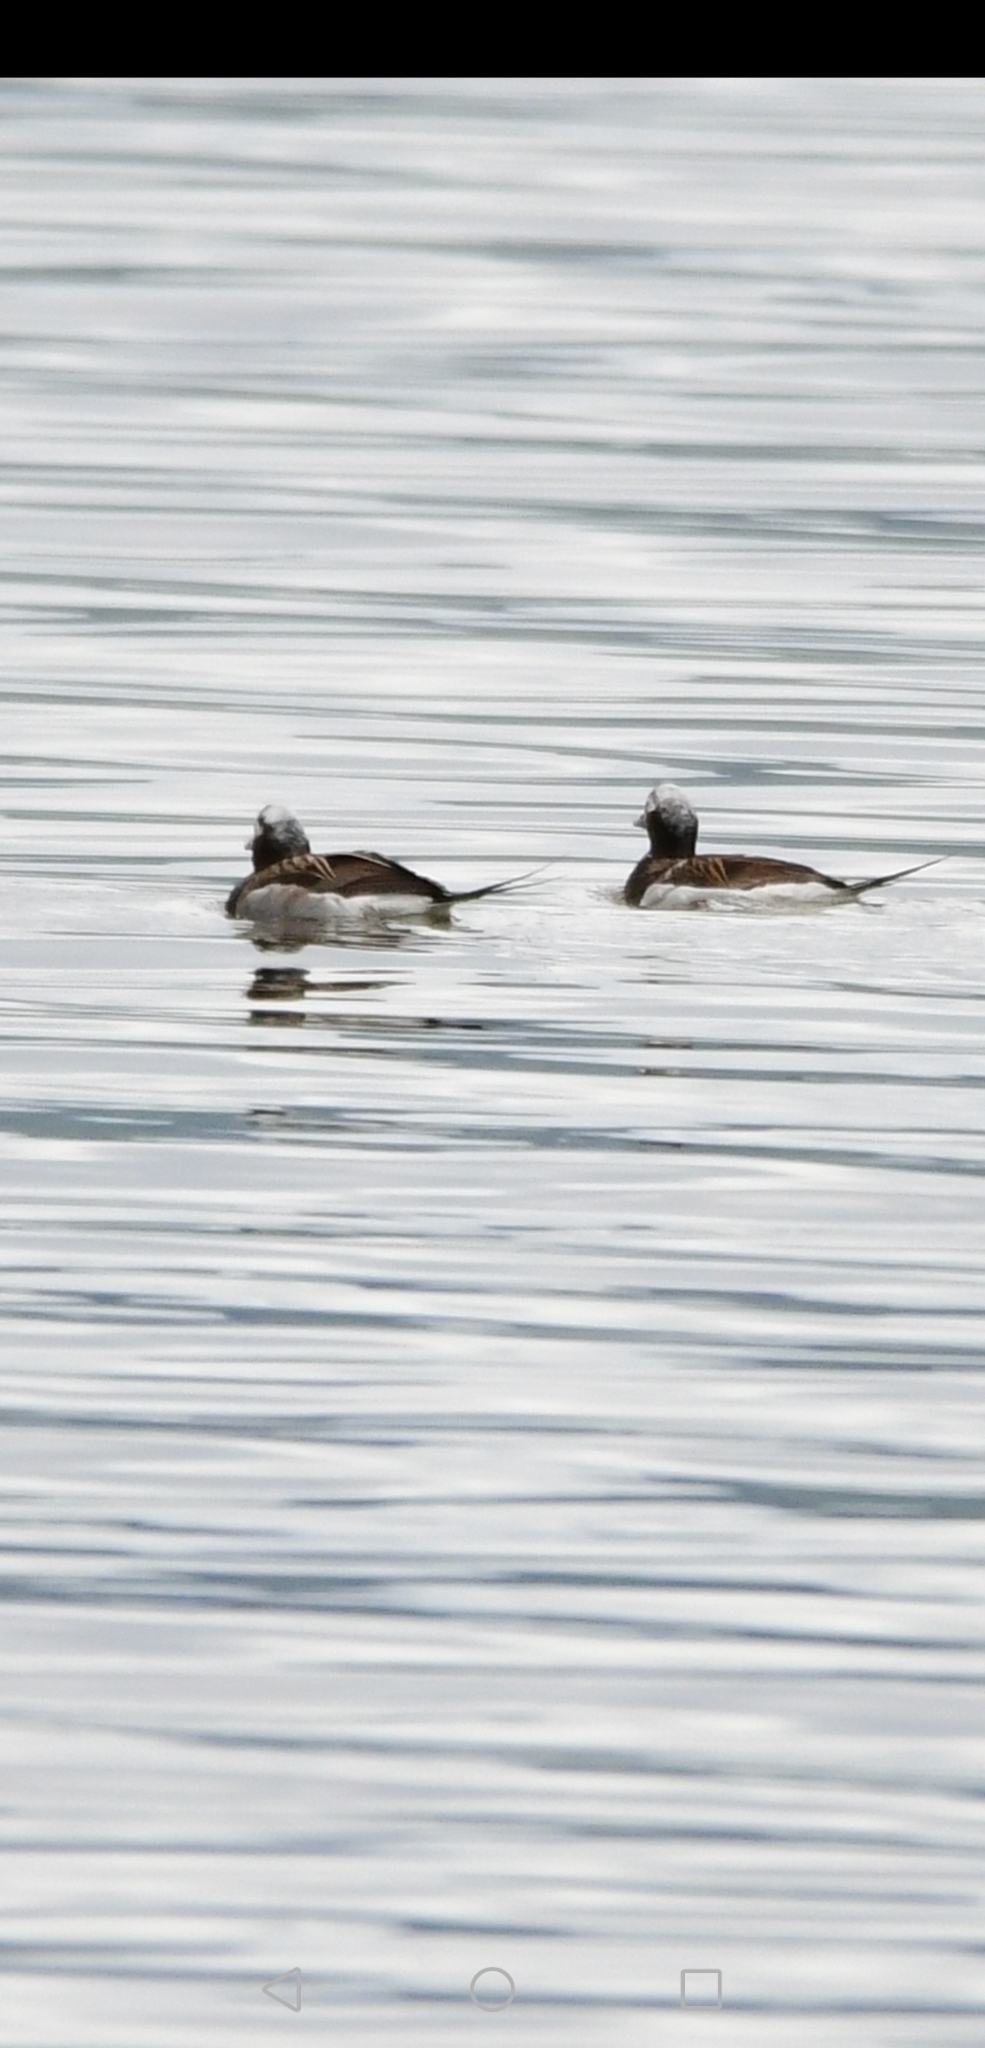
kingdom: Animalia
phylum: Chordata
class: Aves
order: Anseriformes
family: Anatidae
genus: Clangula
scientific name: Clangula hyemalis
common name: Long-tailed duck
